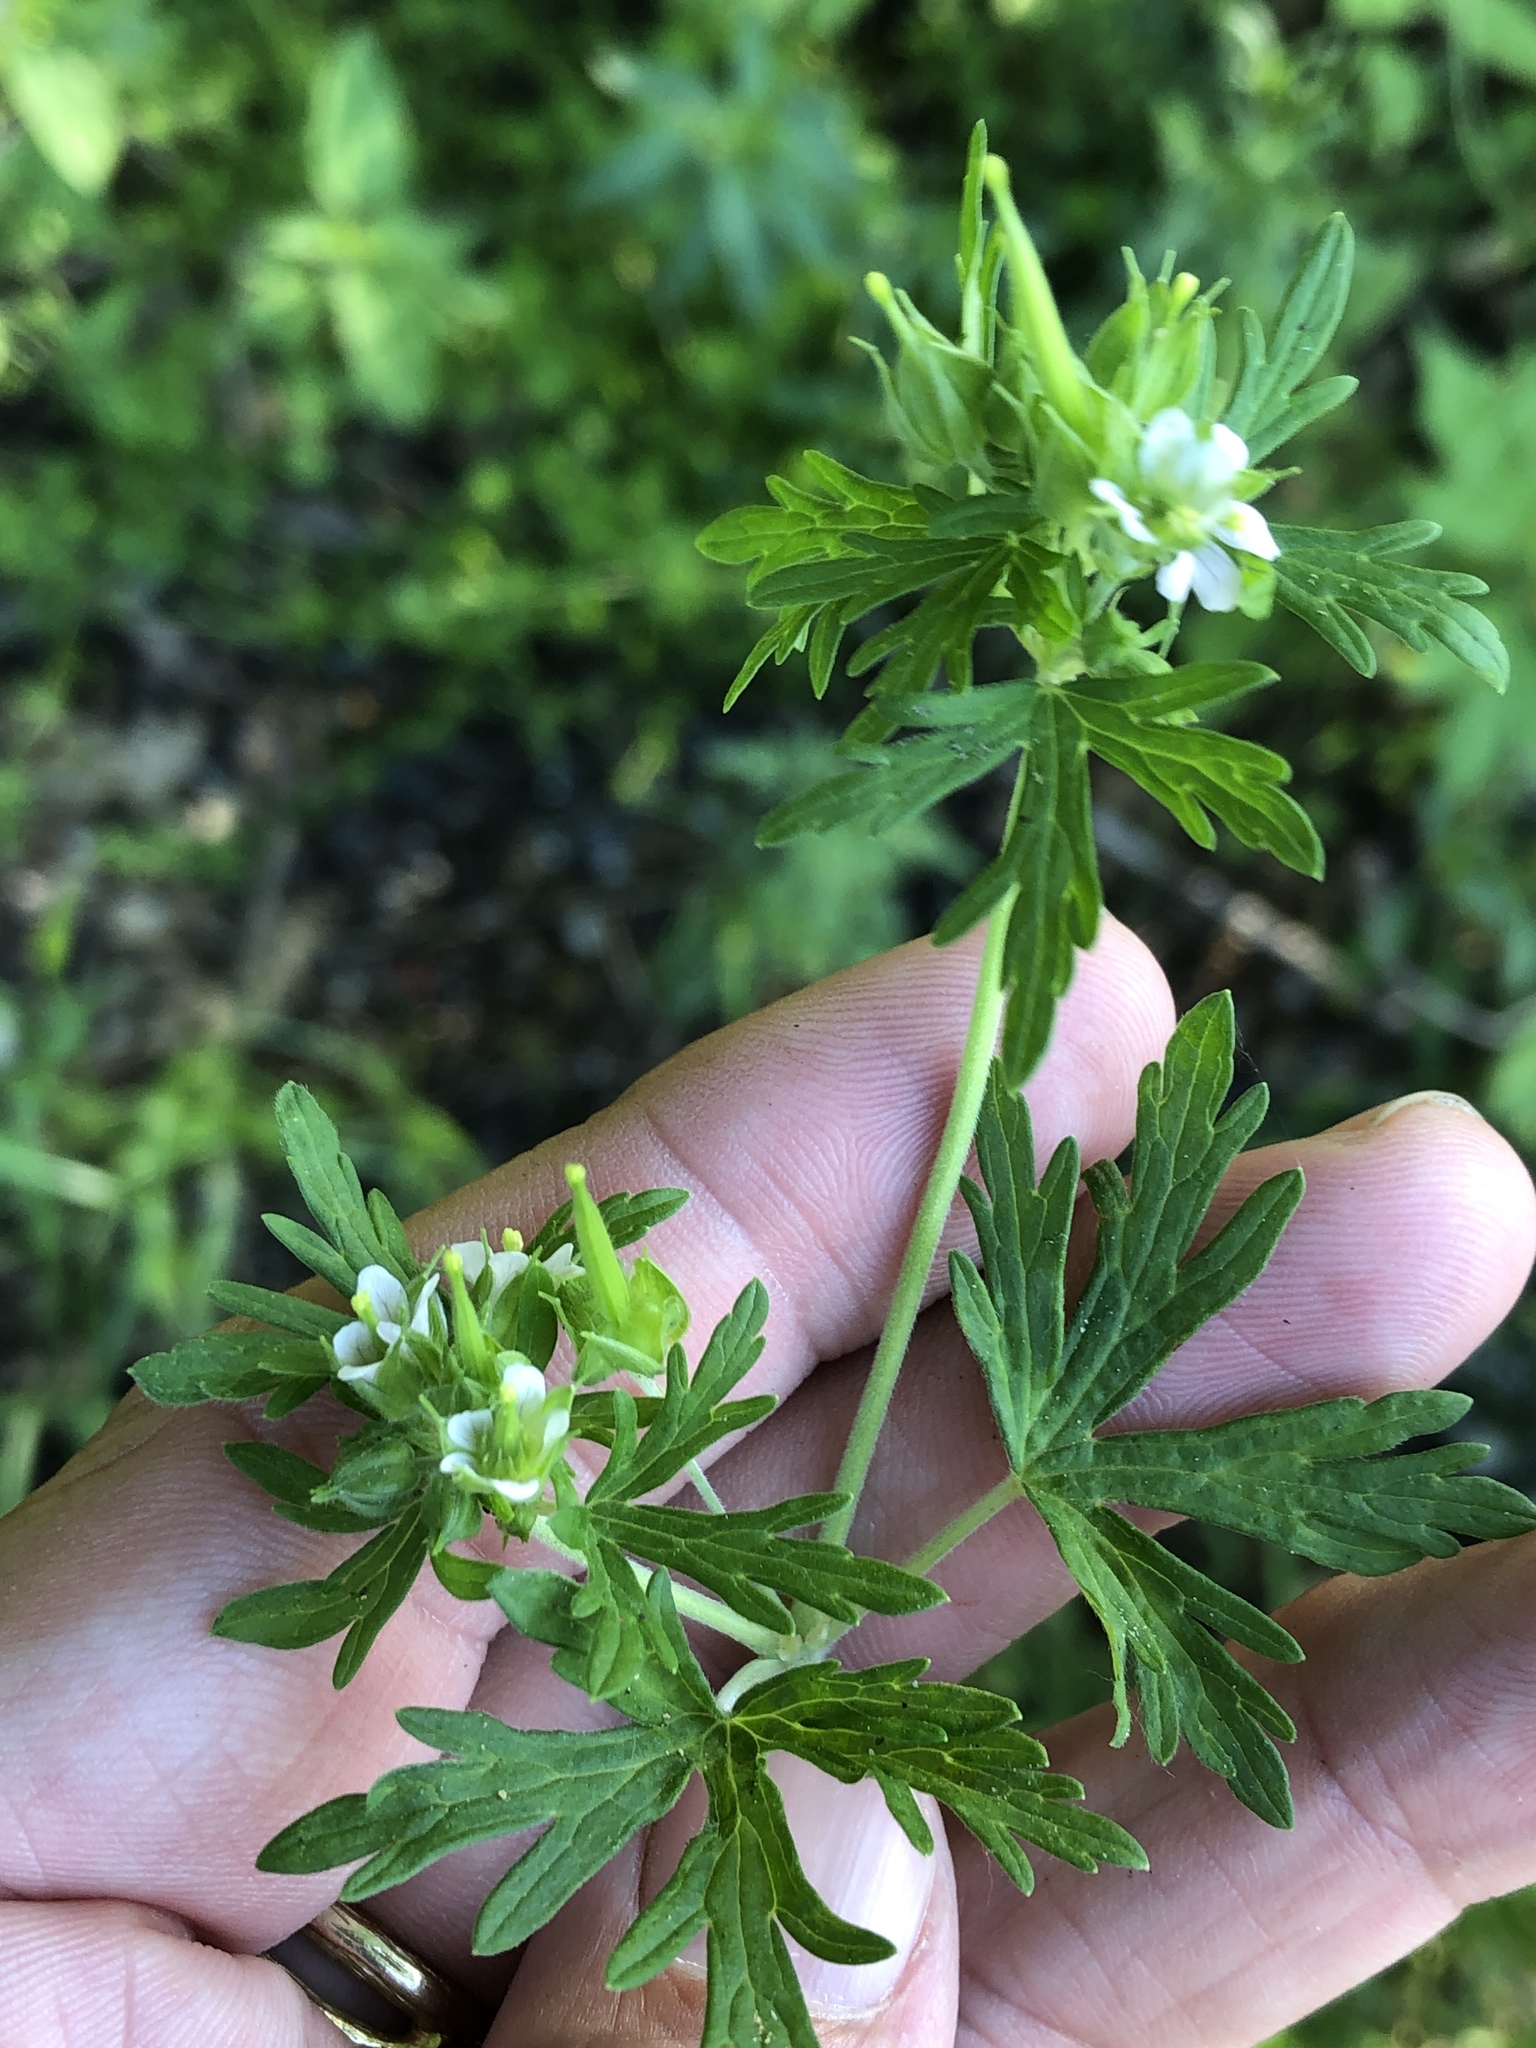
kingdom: Plantae
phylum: Tracheophyta
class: Magnoliopsida
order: Geraniales
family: Geraniaceae
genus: Geranium
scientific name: Geranium carolinianum
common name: Carolina crane's-bill
